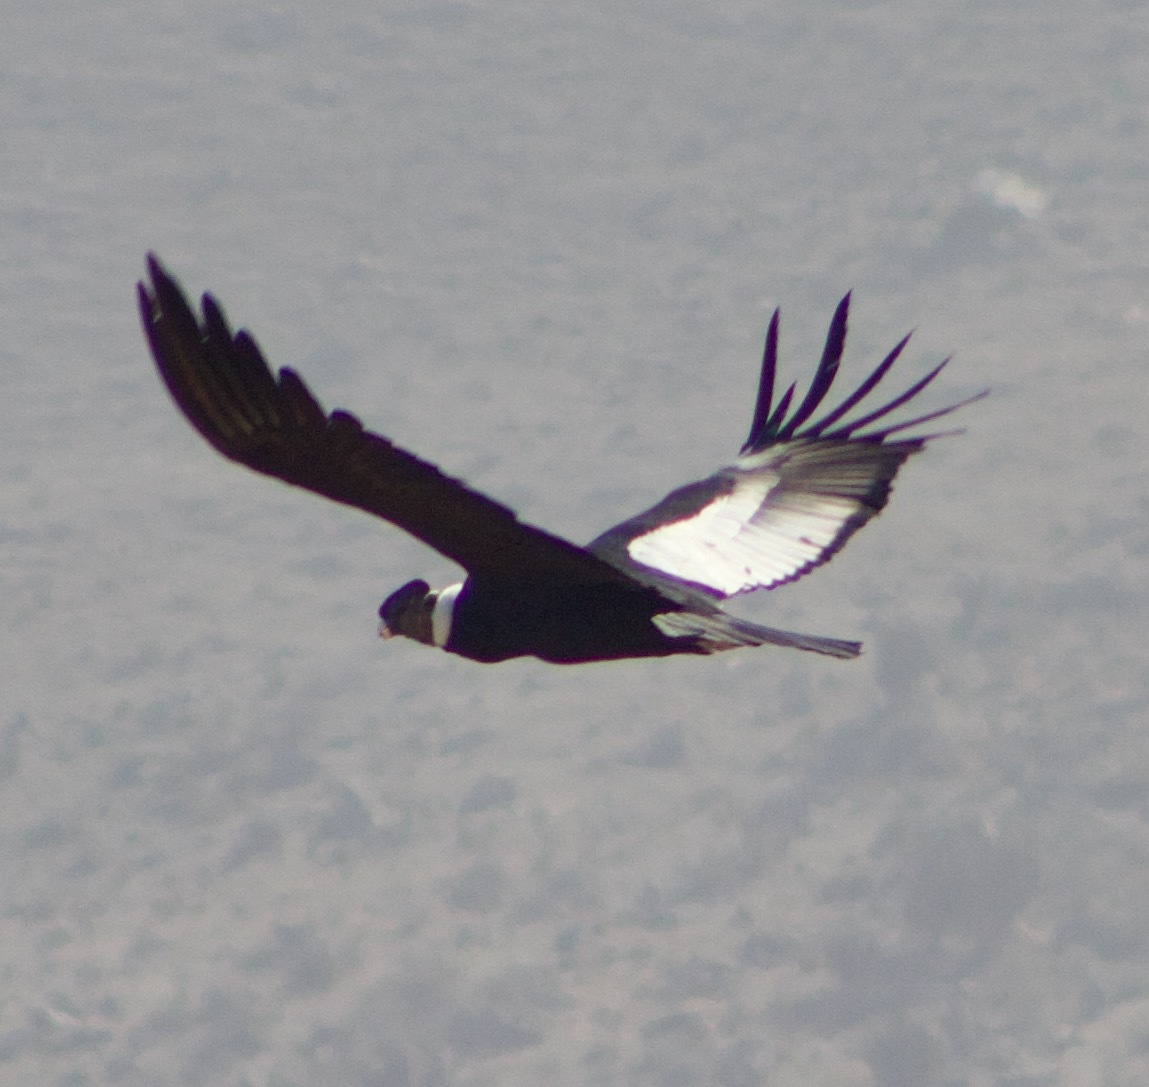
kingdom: Animalia
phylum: Chordata
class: Aves
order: Accipitriformes
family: Cathartidae
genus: Vultur
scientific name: Vultur gryphus
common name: Andean condor
